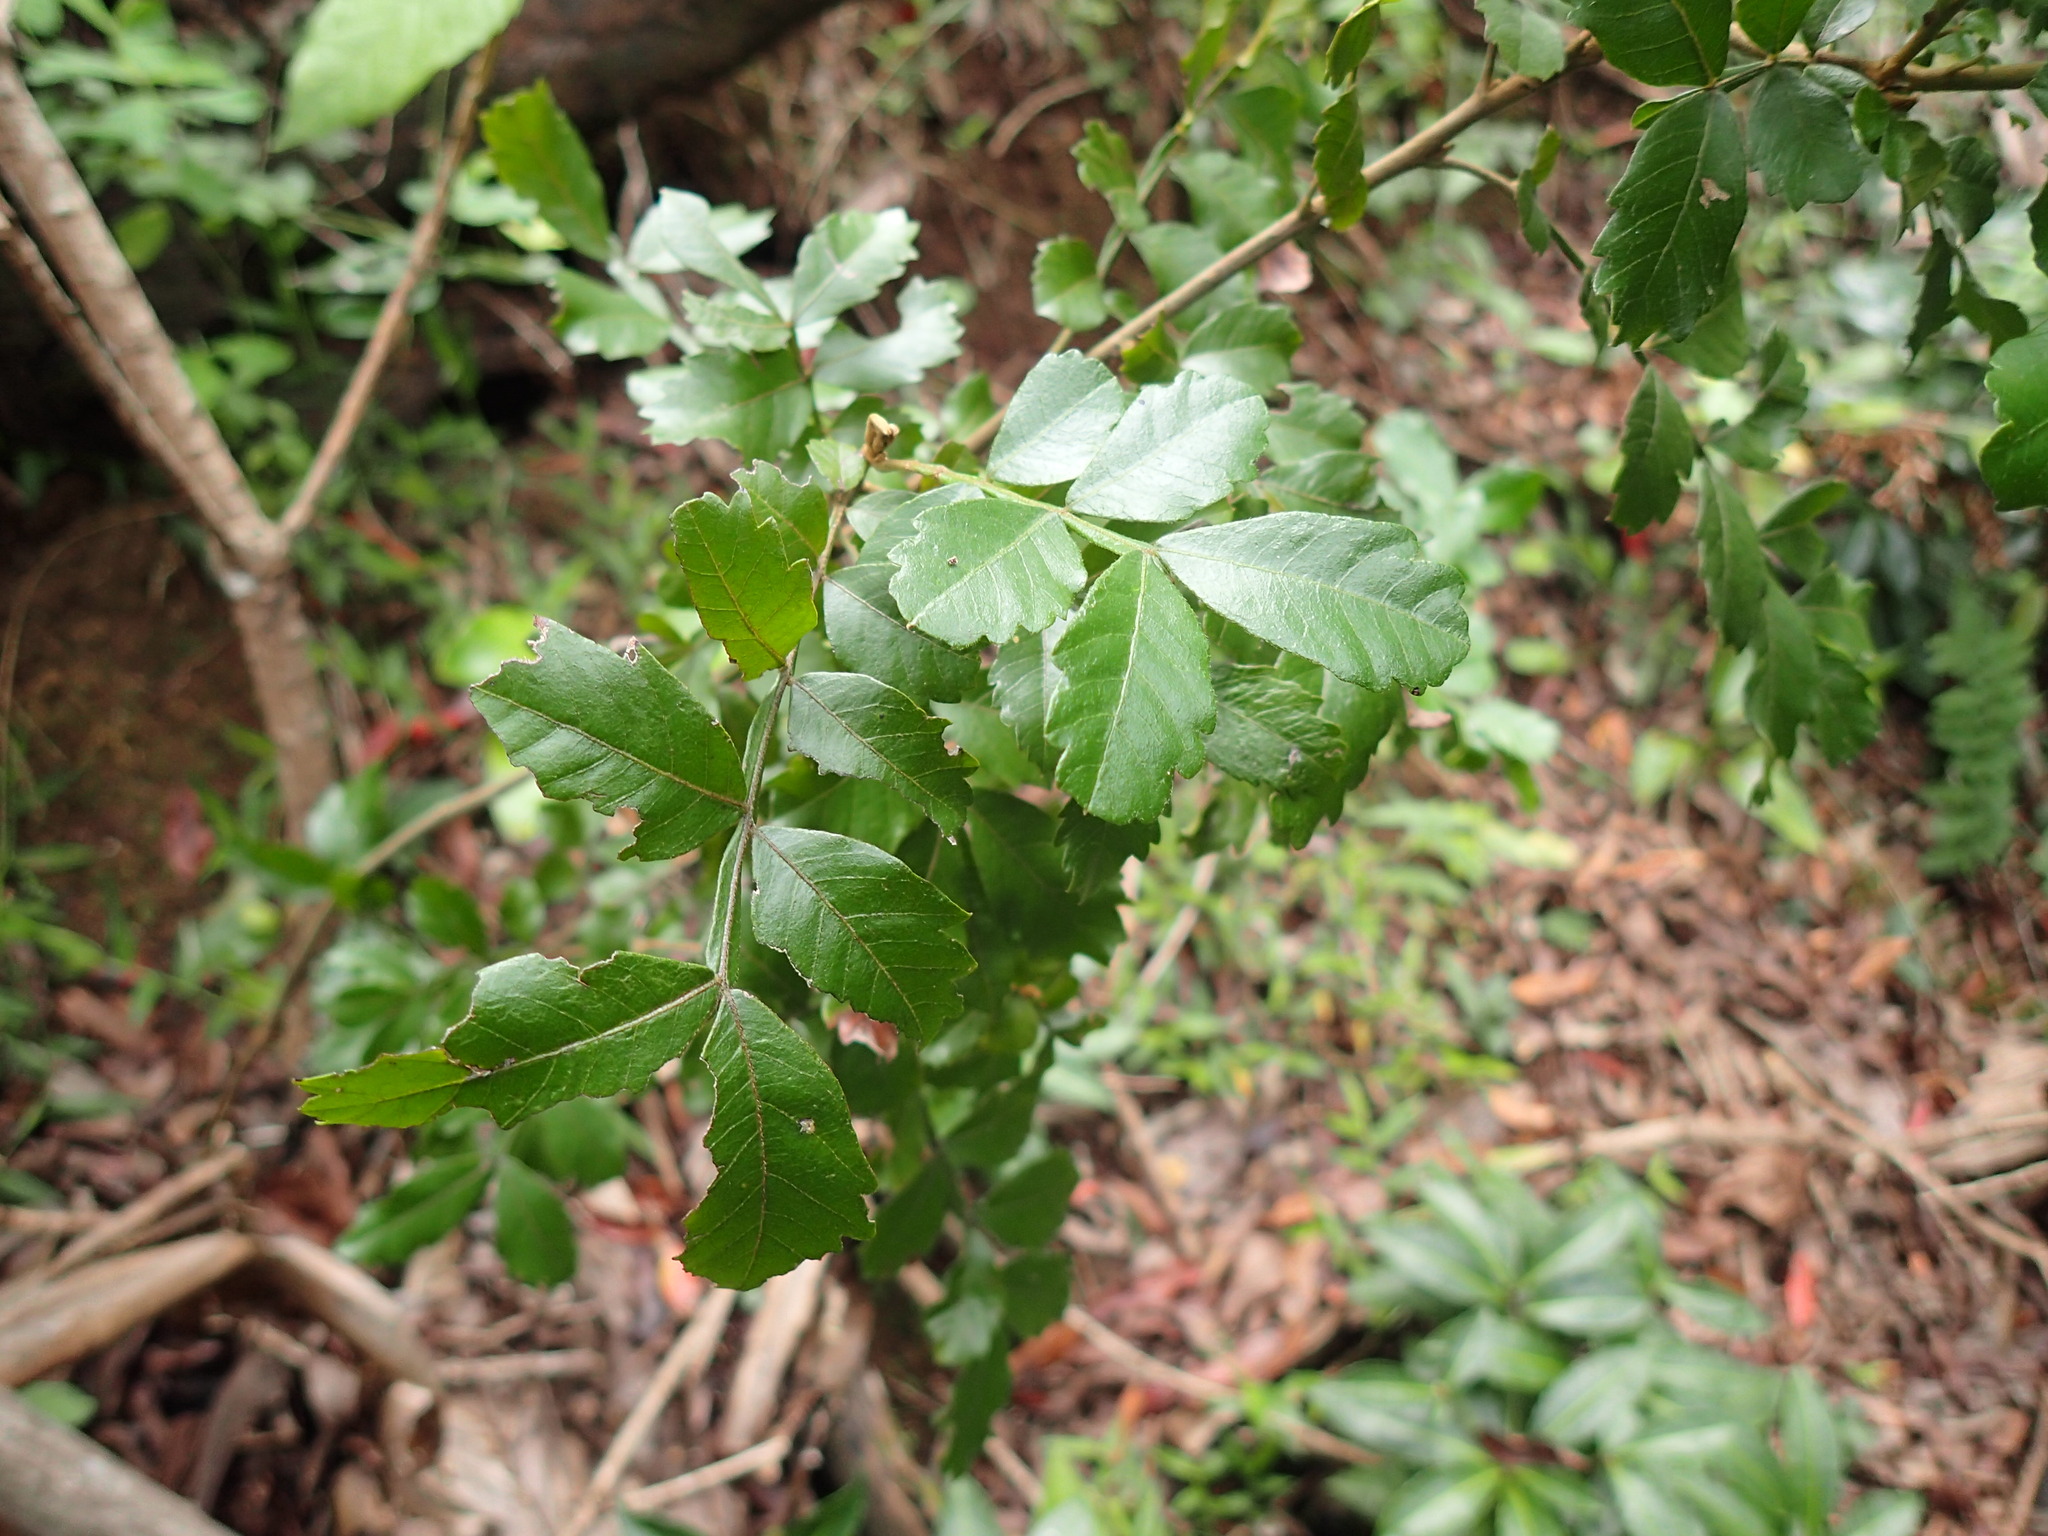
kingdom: Plantae
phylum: Tracheophyta
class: Magnoliopsida
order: Sapindales
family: Sapindaceae
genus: Hippobromus
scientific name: Hippobromus pauciflorus
